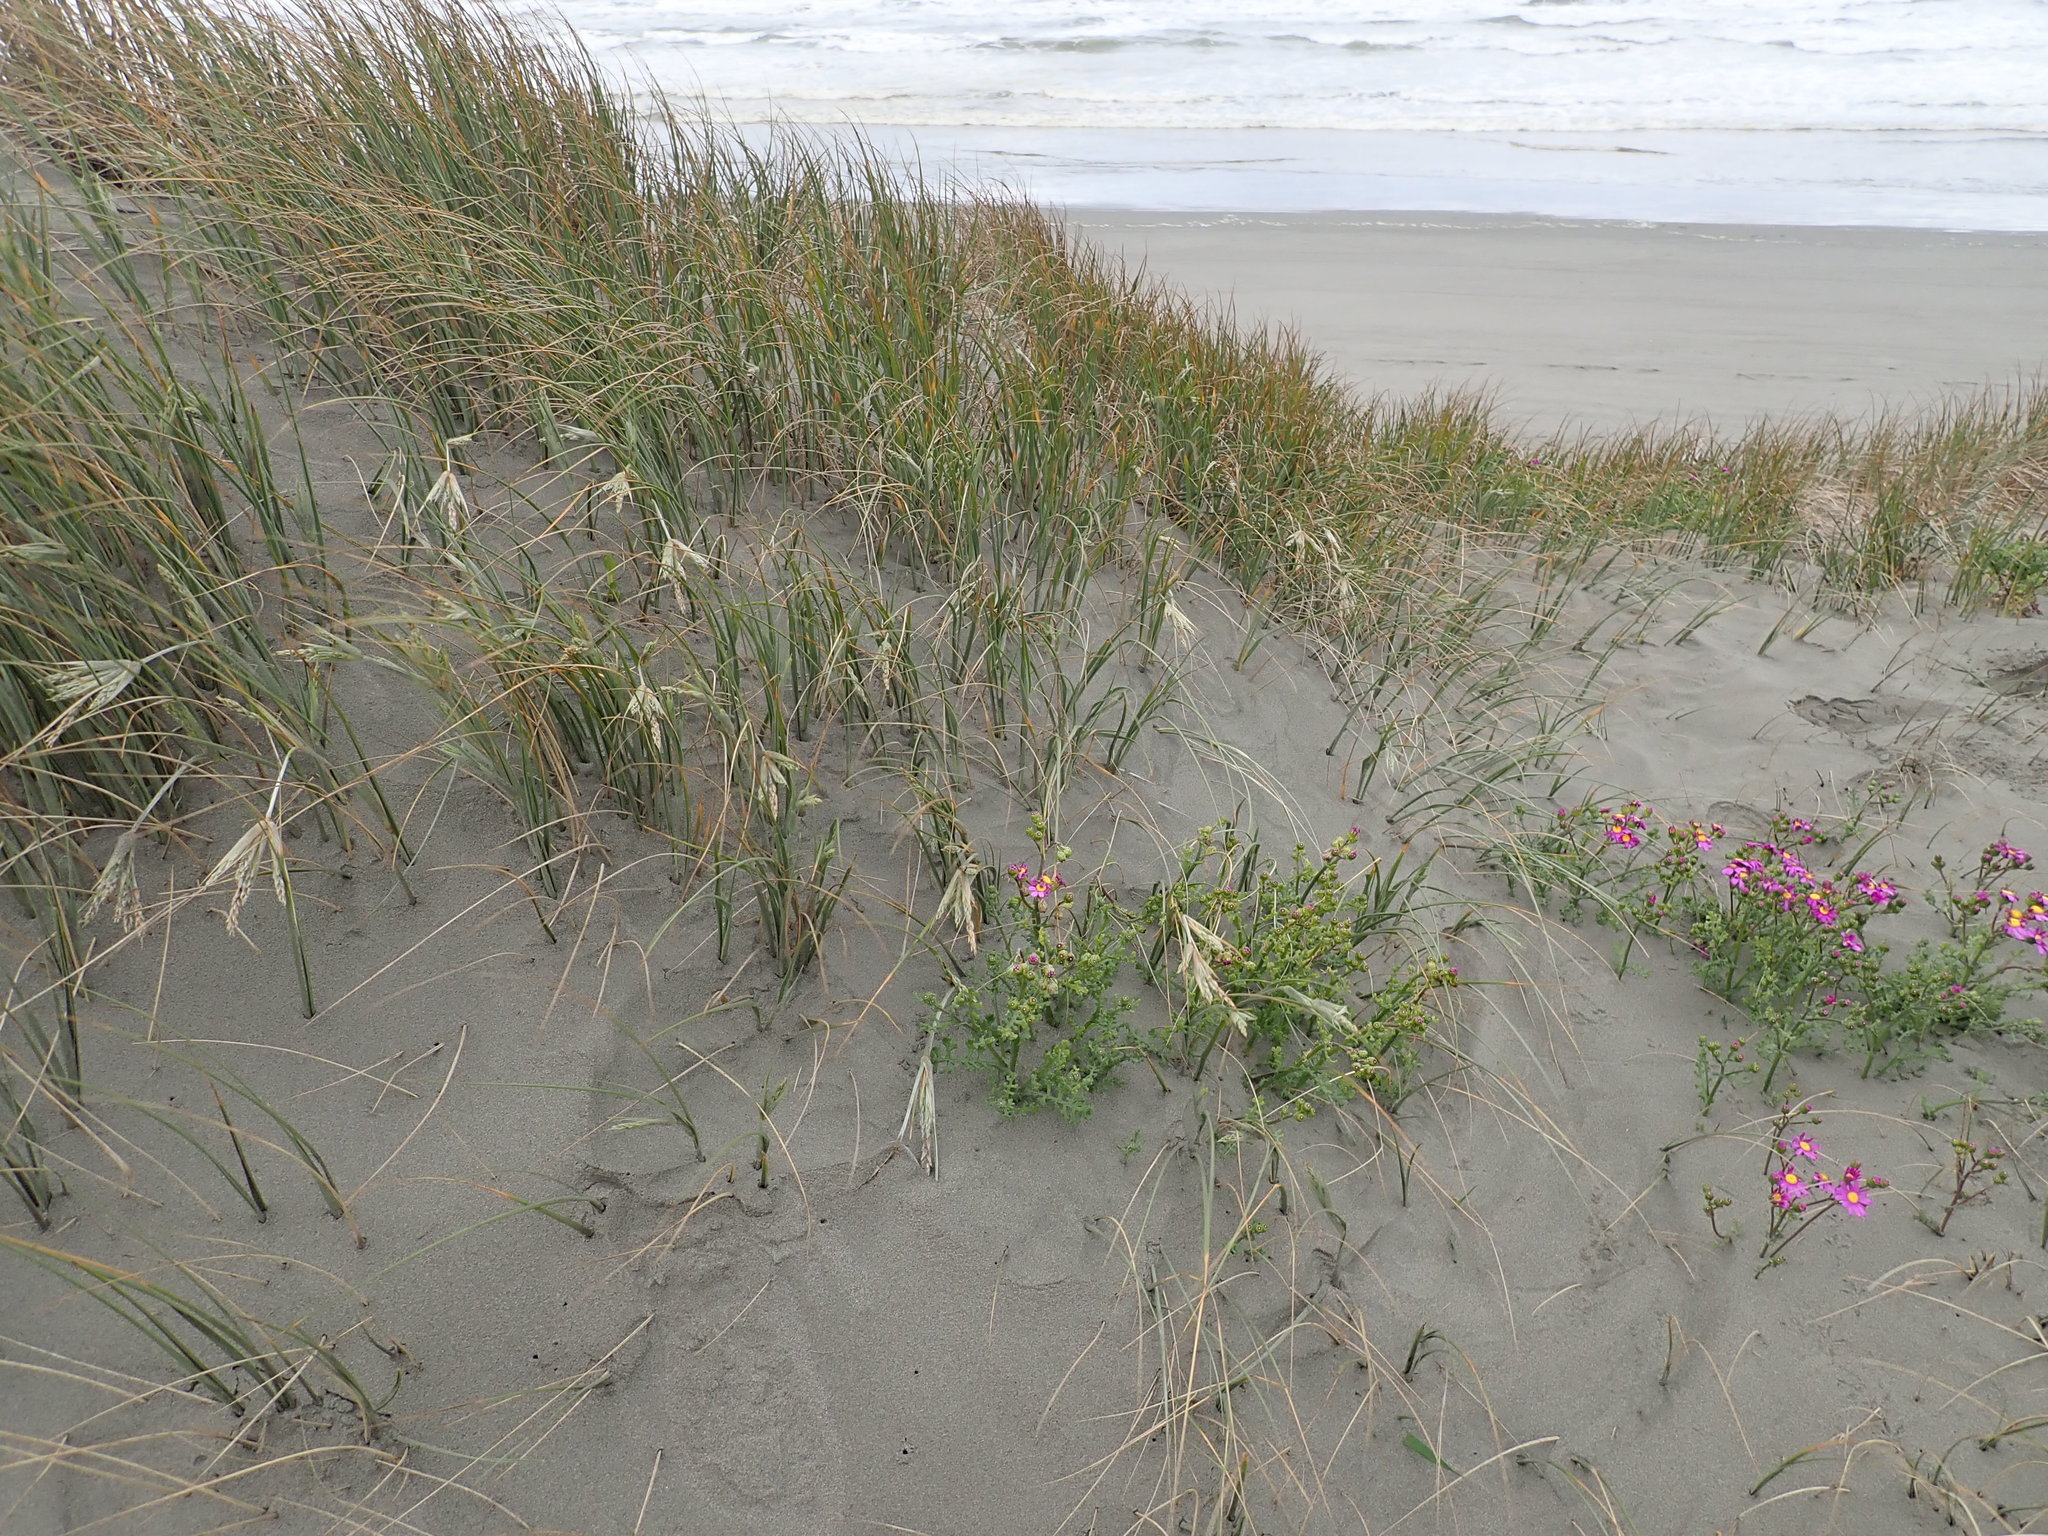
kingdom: Plantae
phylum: Tracheophyta
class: Liliopsida
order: Poales
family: Poaceae
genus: Spinifex
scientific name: Spinifex sericeus
